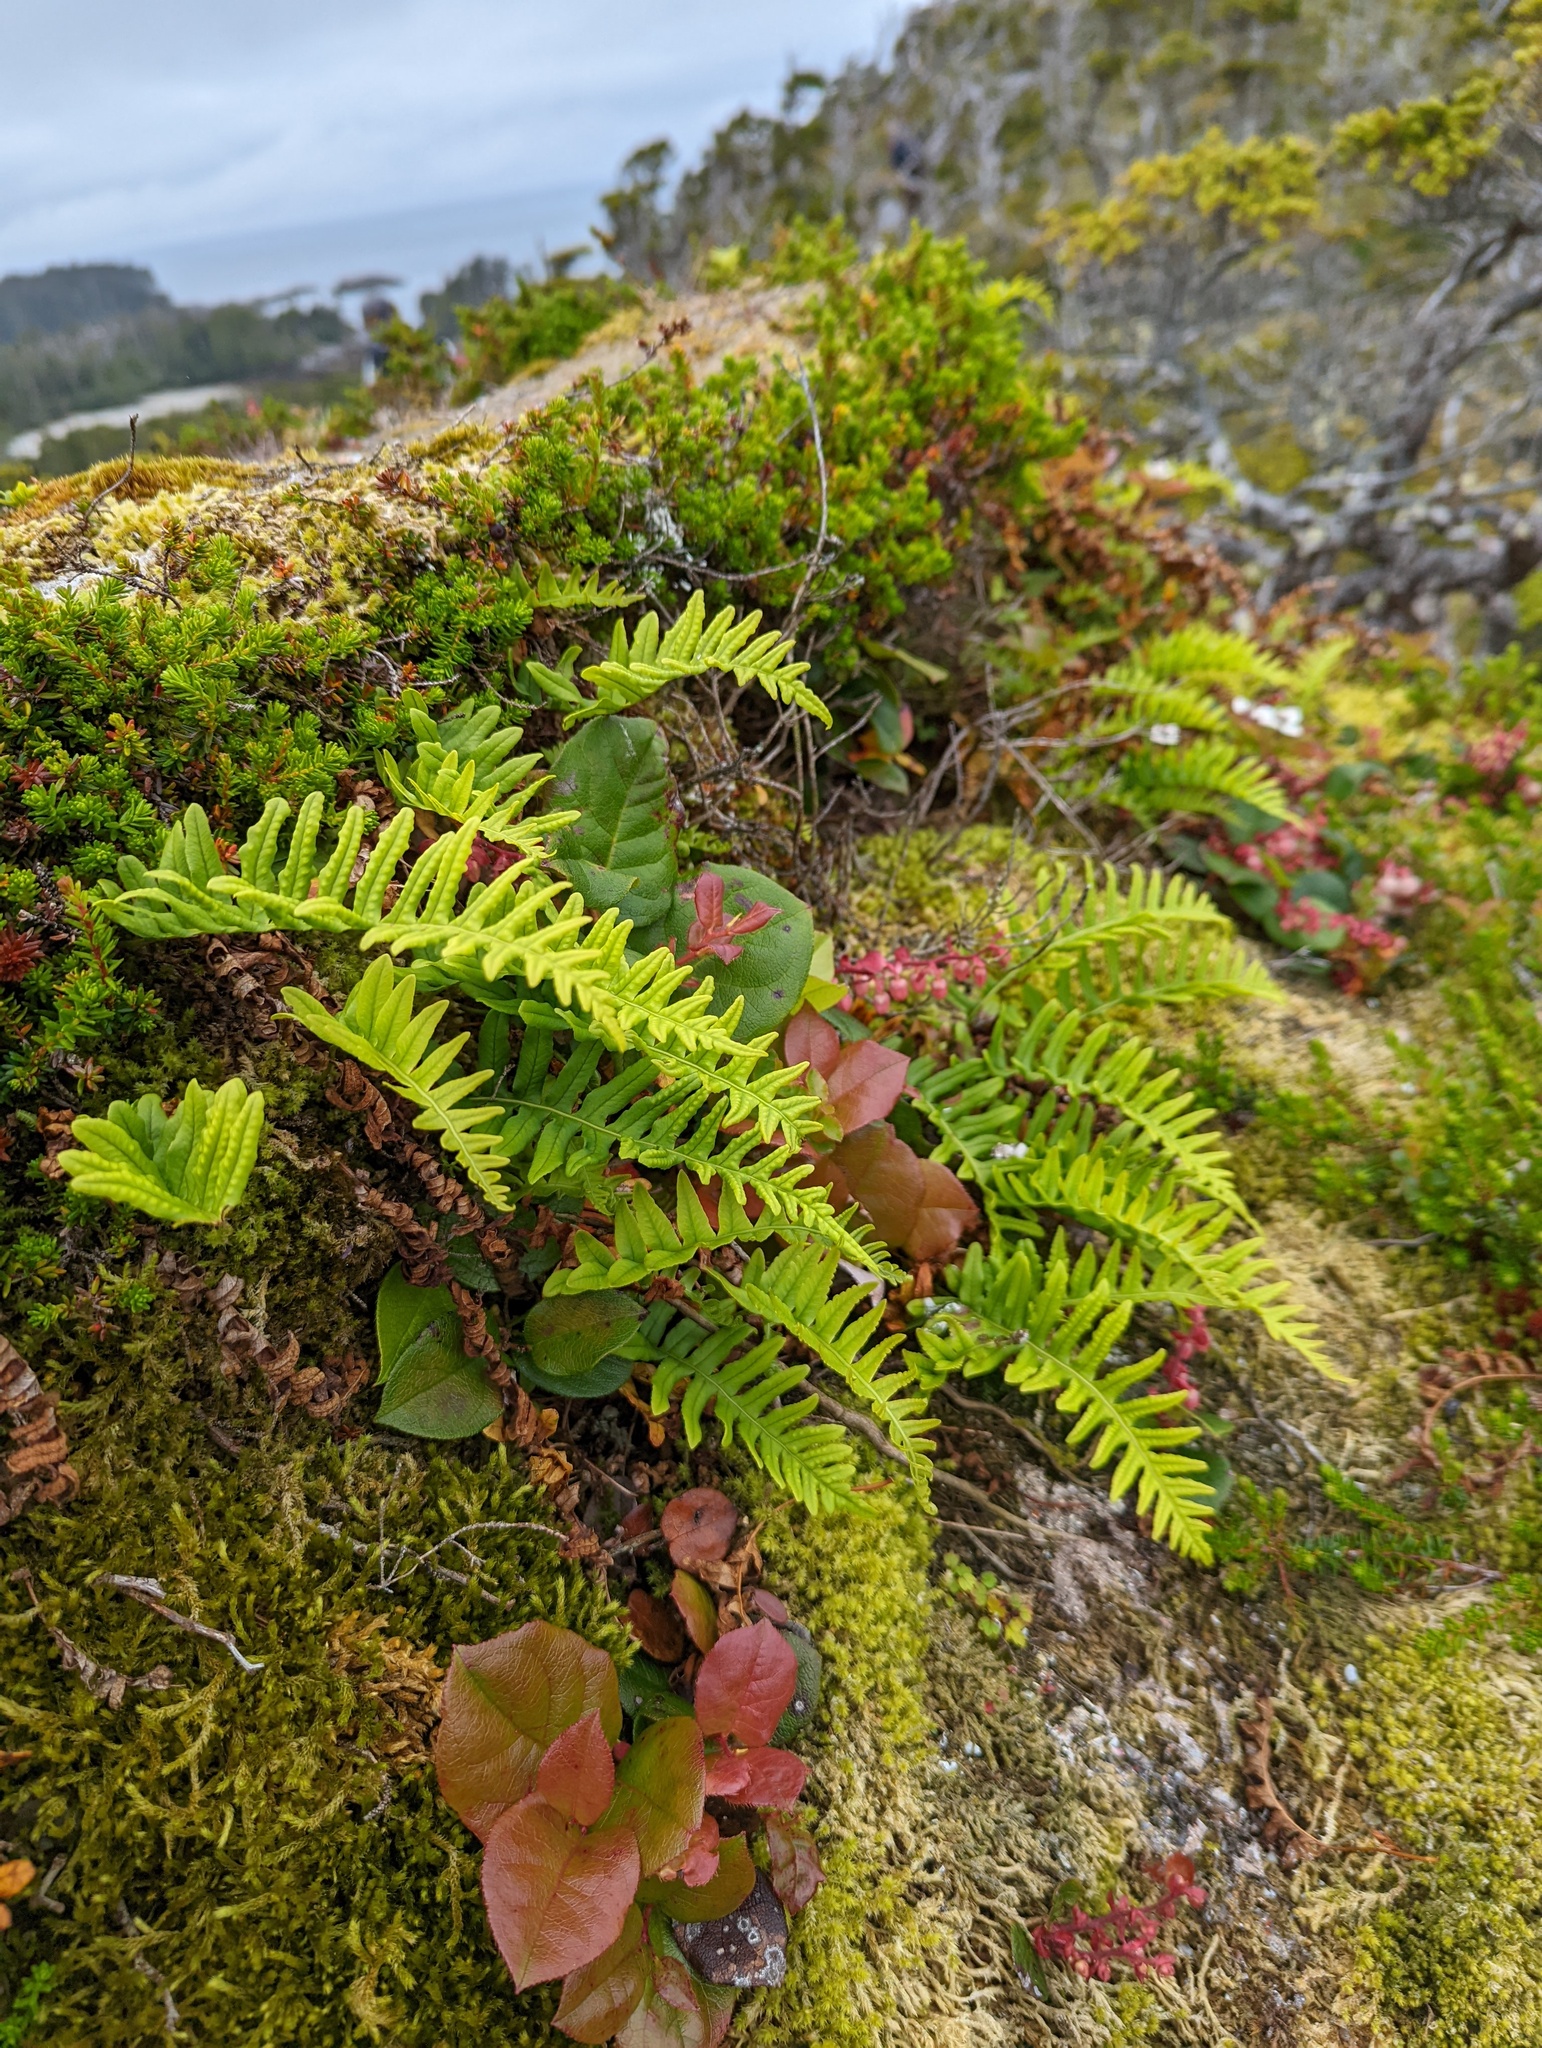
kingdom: Plantae
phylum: Tracheophyta
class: Polypodiopsida
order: Polypodiales
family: Polypodiaceae
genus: Polypodium
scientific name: Polypodium glycyrrhiza
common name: Licorice fern
